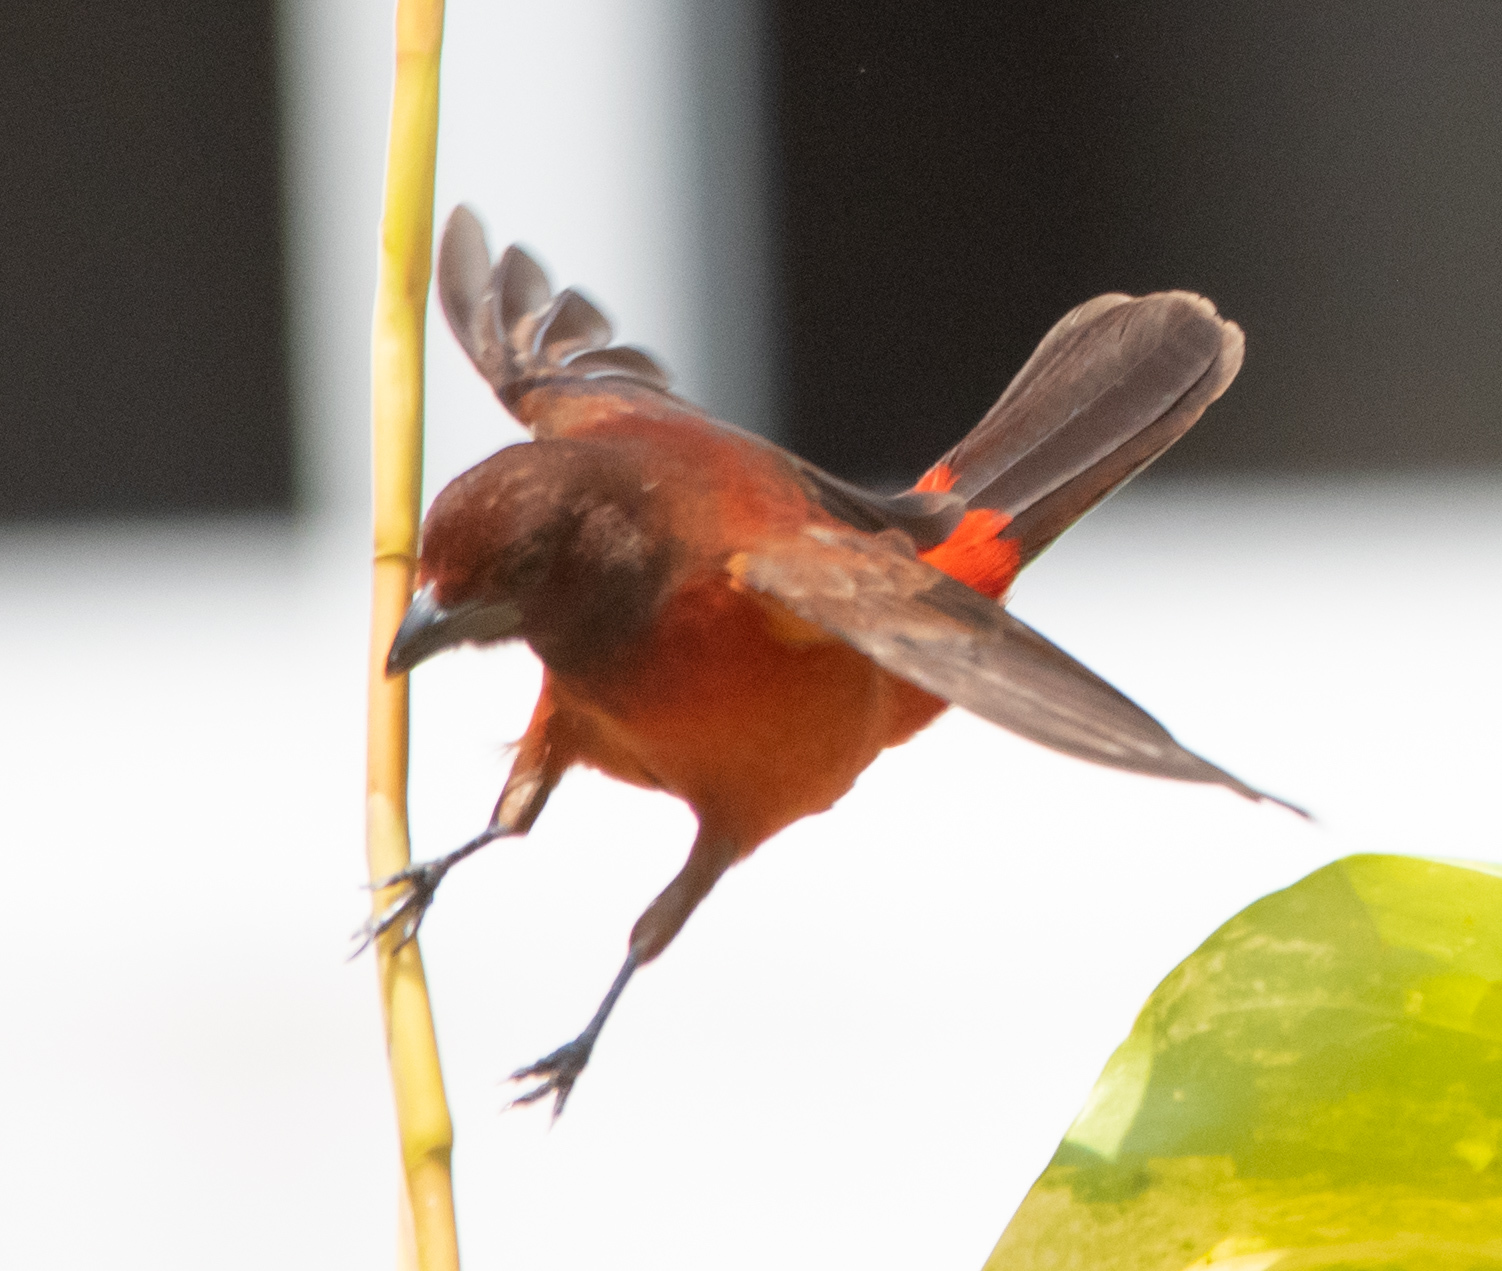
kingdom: Animalia
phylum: Chordata
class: Aves
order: Passeriformes
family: Thraupidae
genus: Ramphocelus
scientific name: Ramphocelus dimidiatus
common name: Crimson-backed tanager
